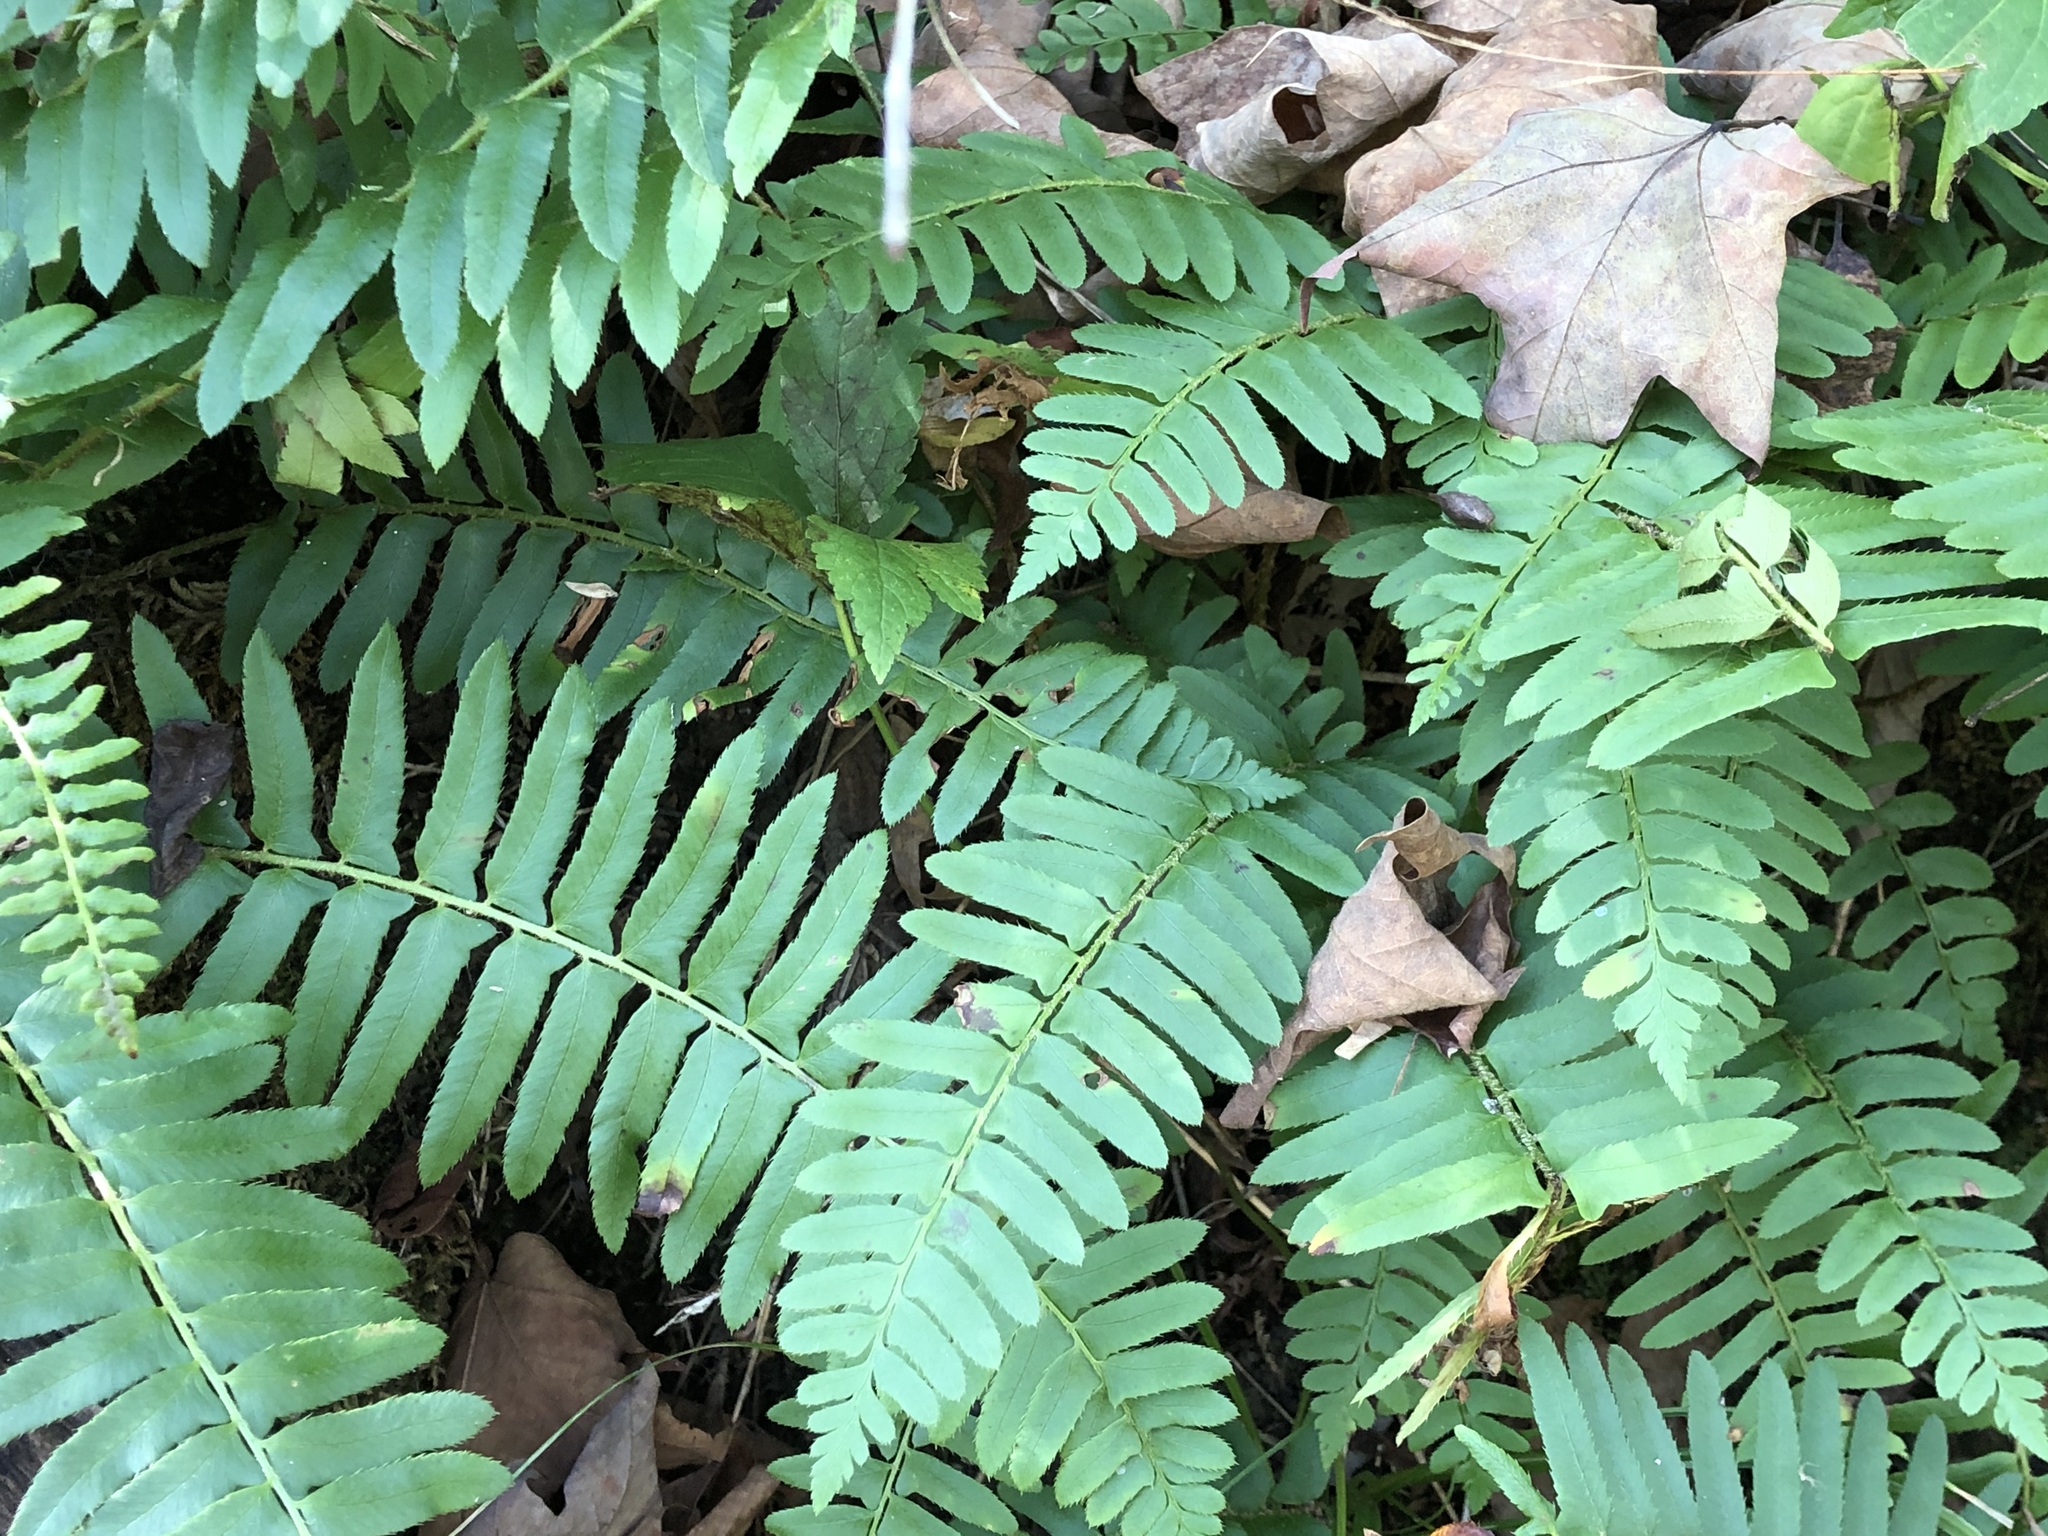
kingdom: Plantae
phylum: Tracheophyta
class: Polypodiopsida
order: Polypodiales
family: Dryopteridaceae
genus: Polystichum
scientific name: Polystichum acrostichoides
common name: Christmas fern
